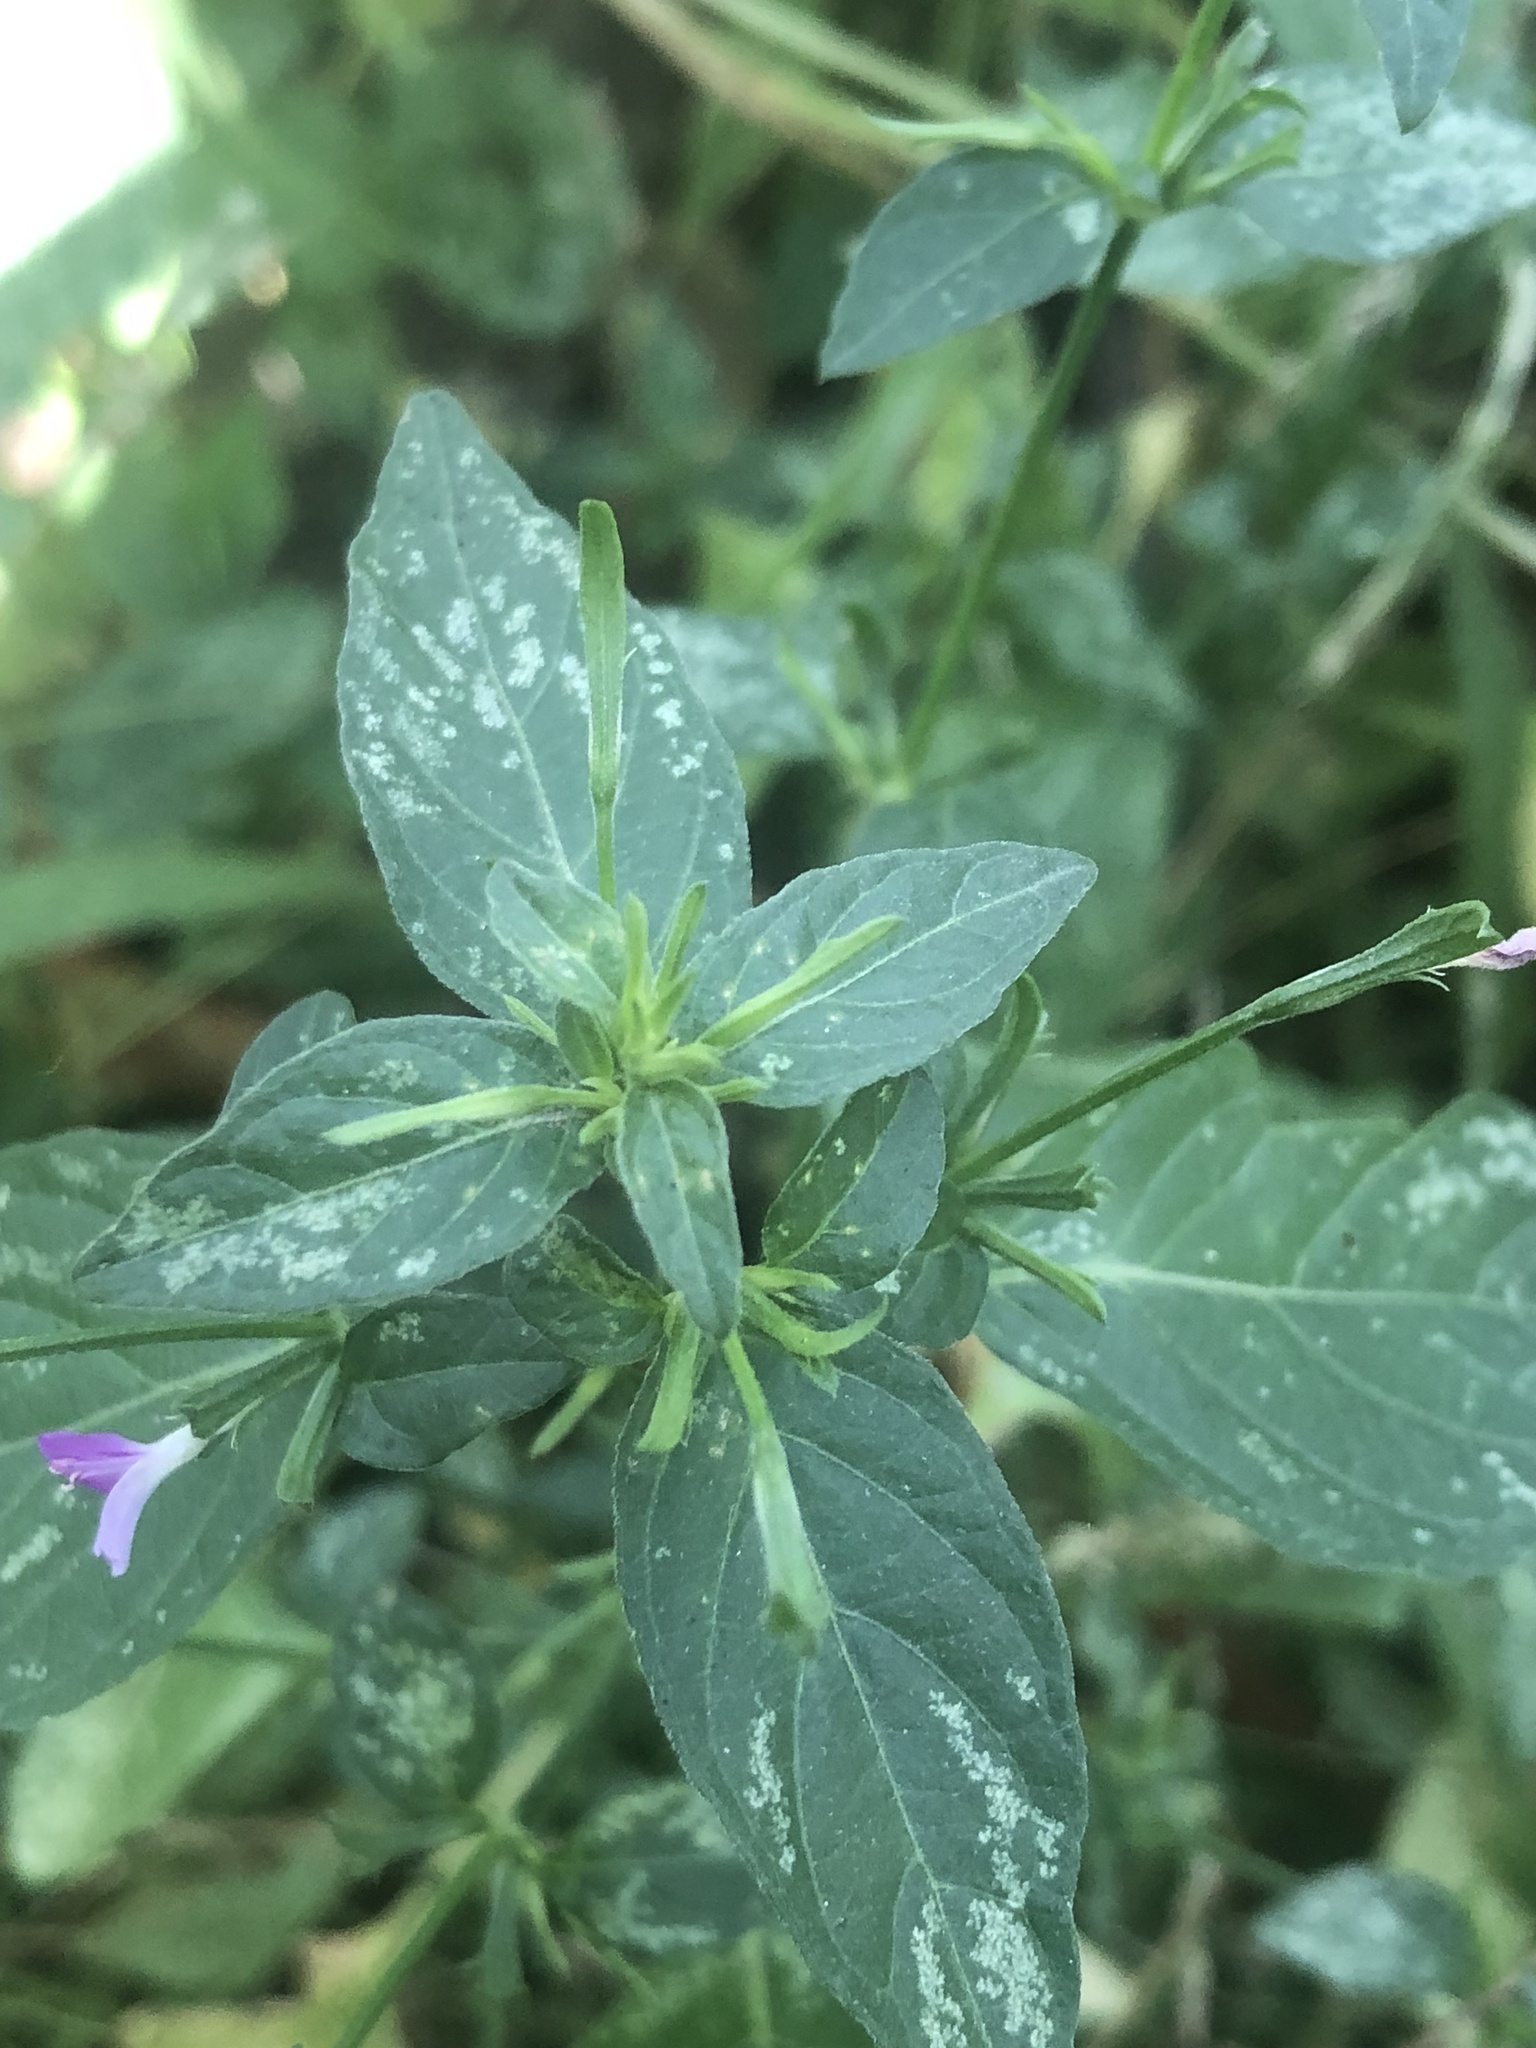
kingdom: Plantae
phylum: Tracheophyta
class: Magnoliopsida
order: Lamiales
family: Acanthaceae
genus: Dicliptera
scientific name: Dicliptera peduncularis
